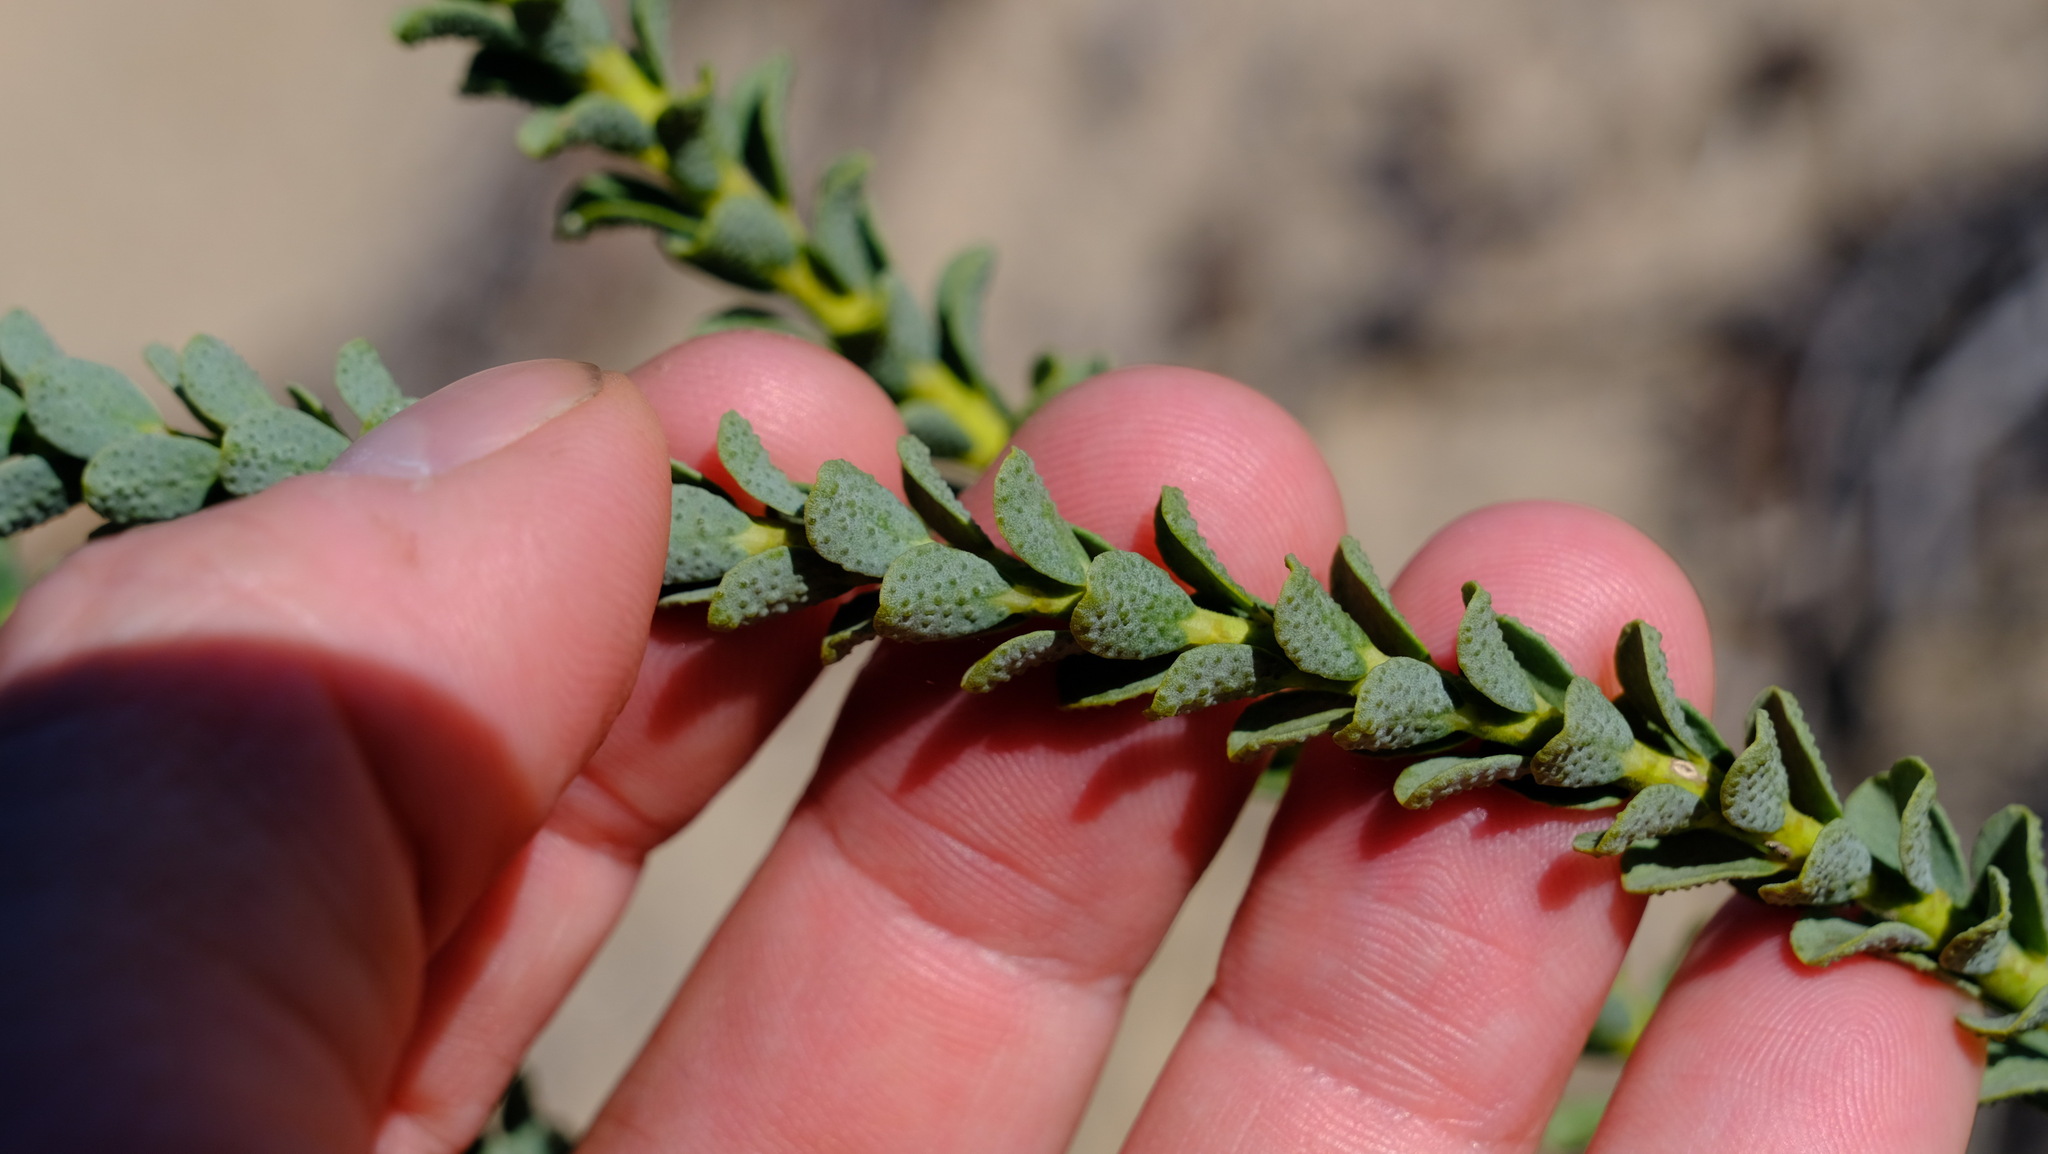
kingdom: Plantae
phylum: Tracheophyta
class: Magnoliopsida
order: Sapindales
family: Rutaceae
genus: Geleznowia
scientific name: Geleznowia verrucosa
